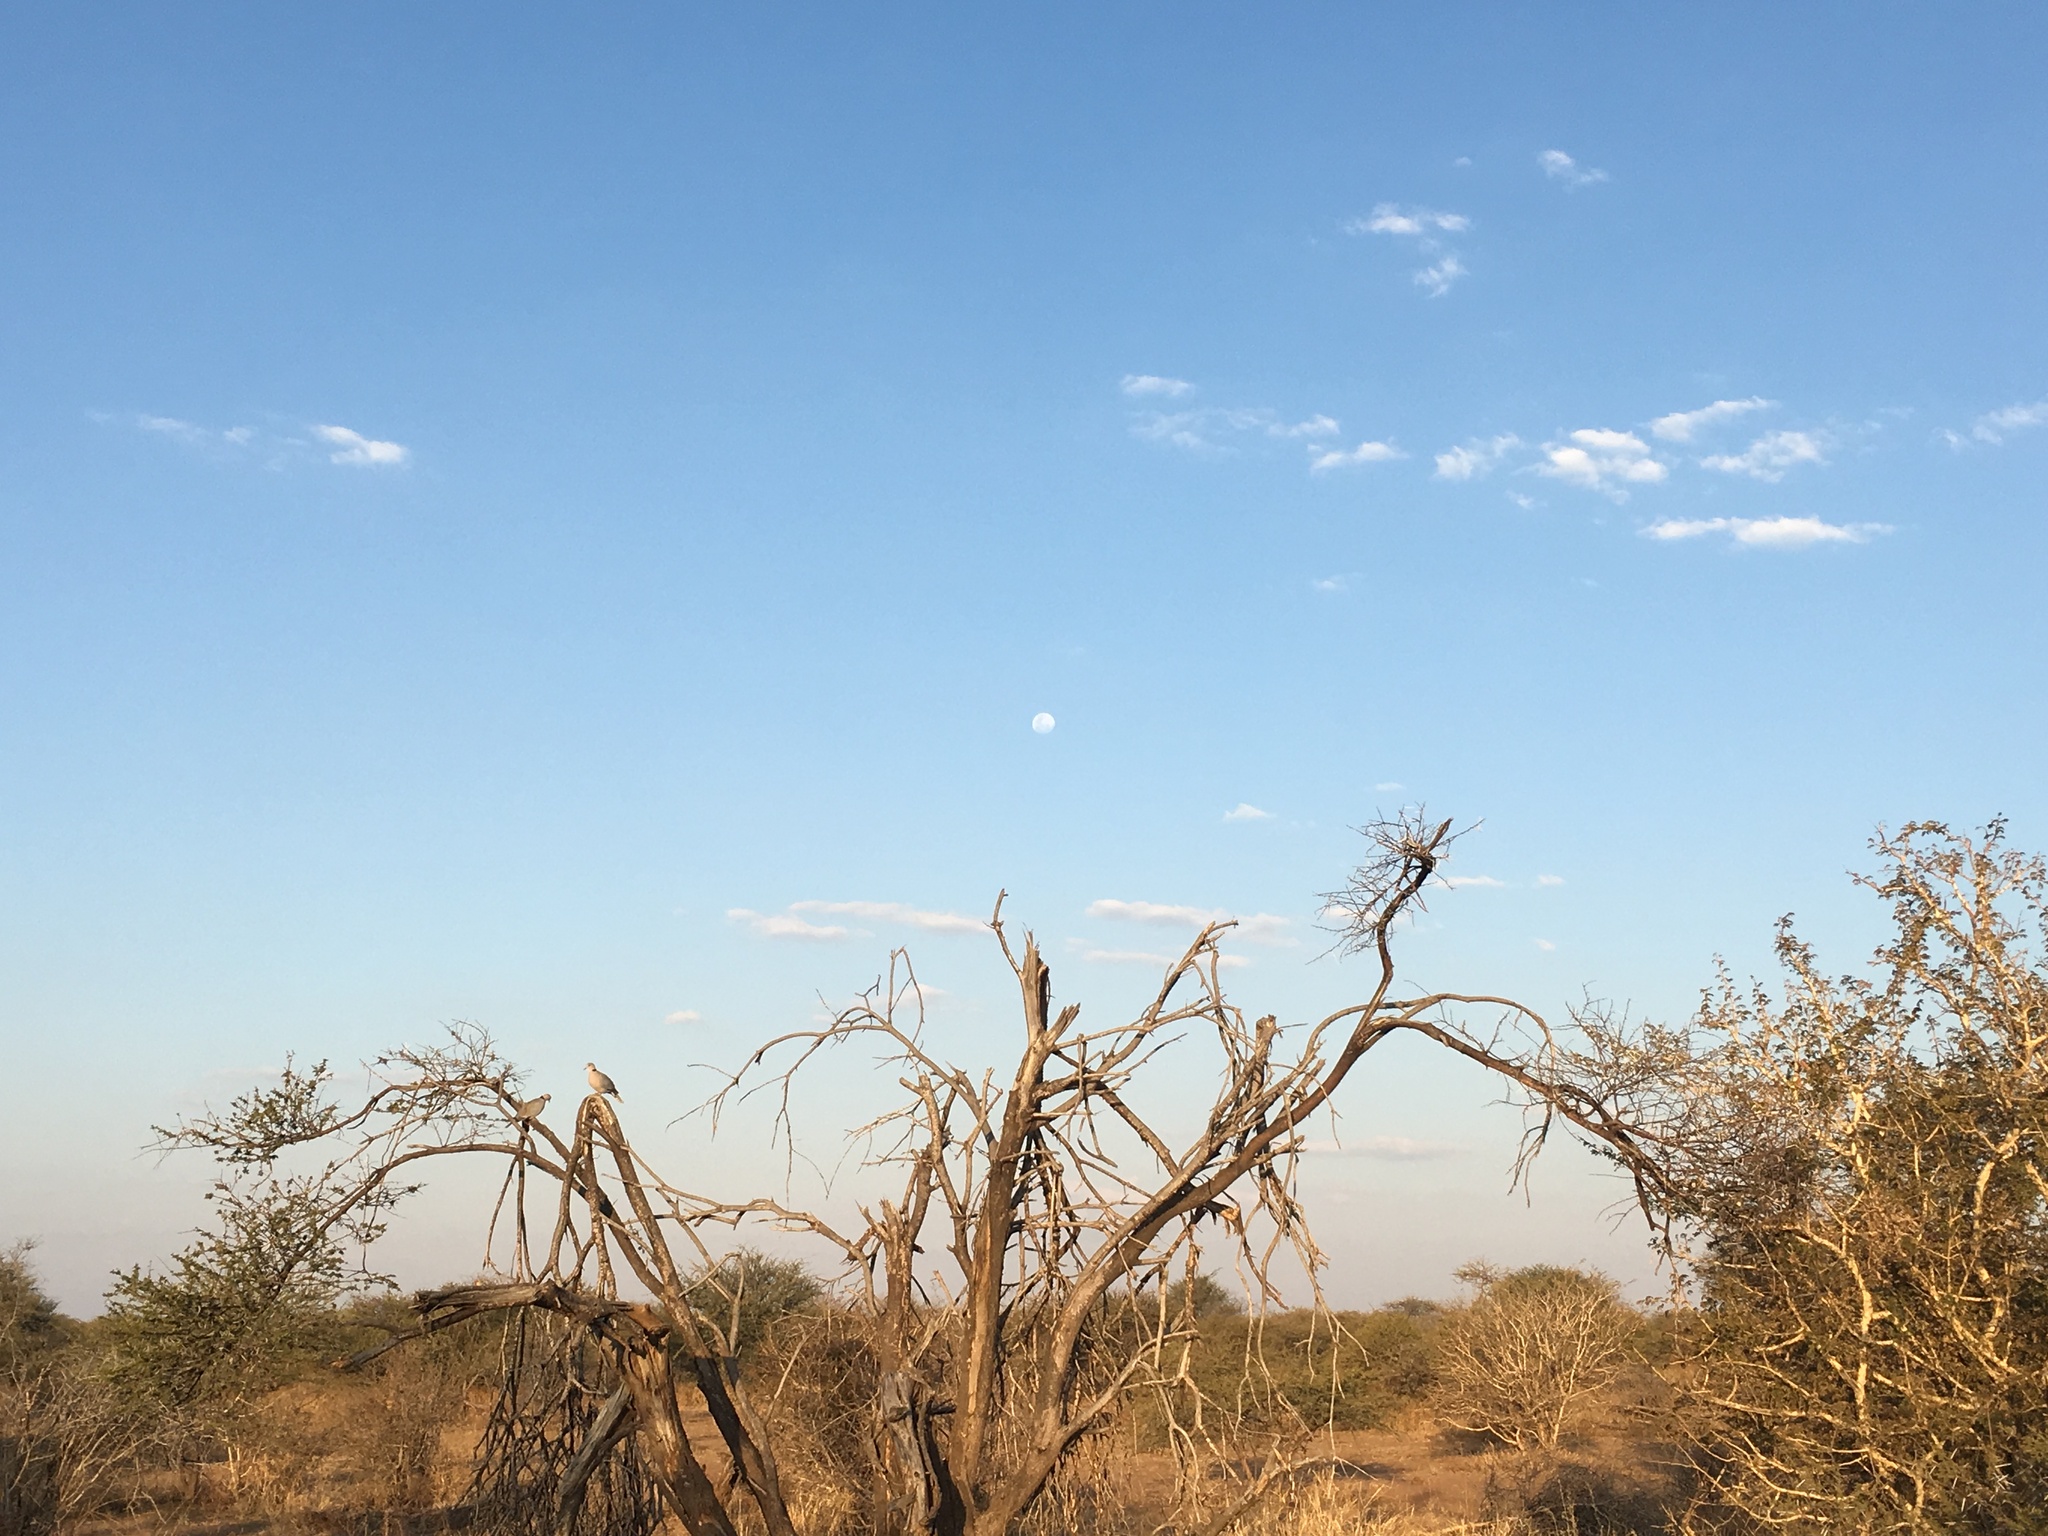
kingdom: Animalia
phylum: Chordata
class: Aves
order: Columbiformes
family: Columbidae
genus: Streptopelia
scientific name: Streptopelia capicola
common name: Ring-necked dove
